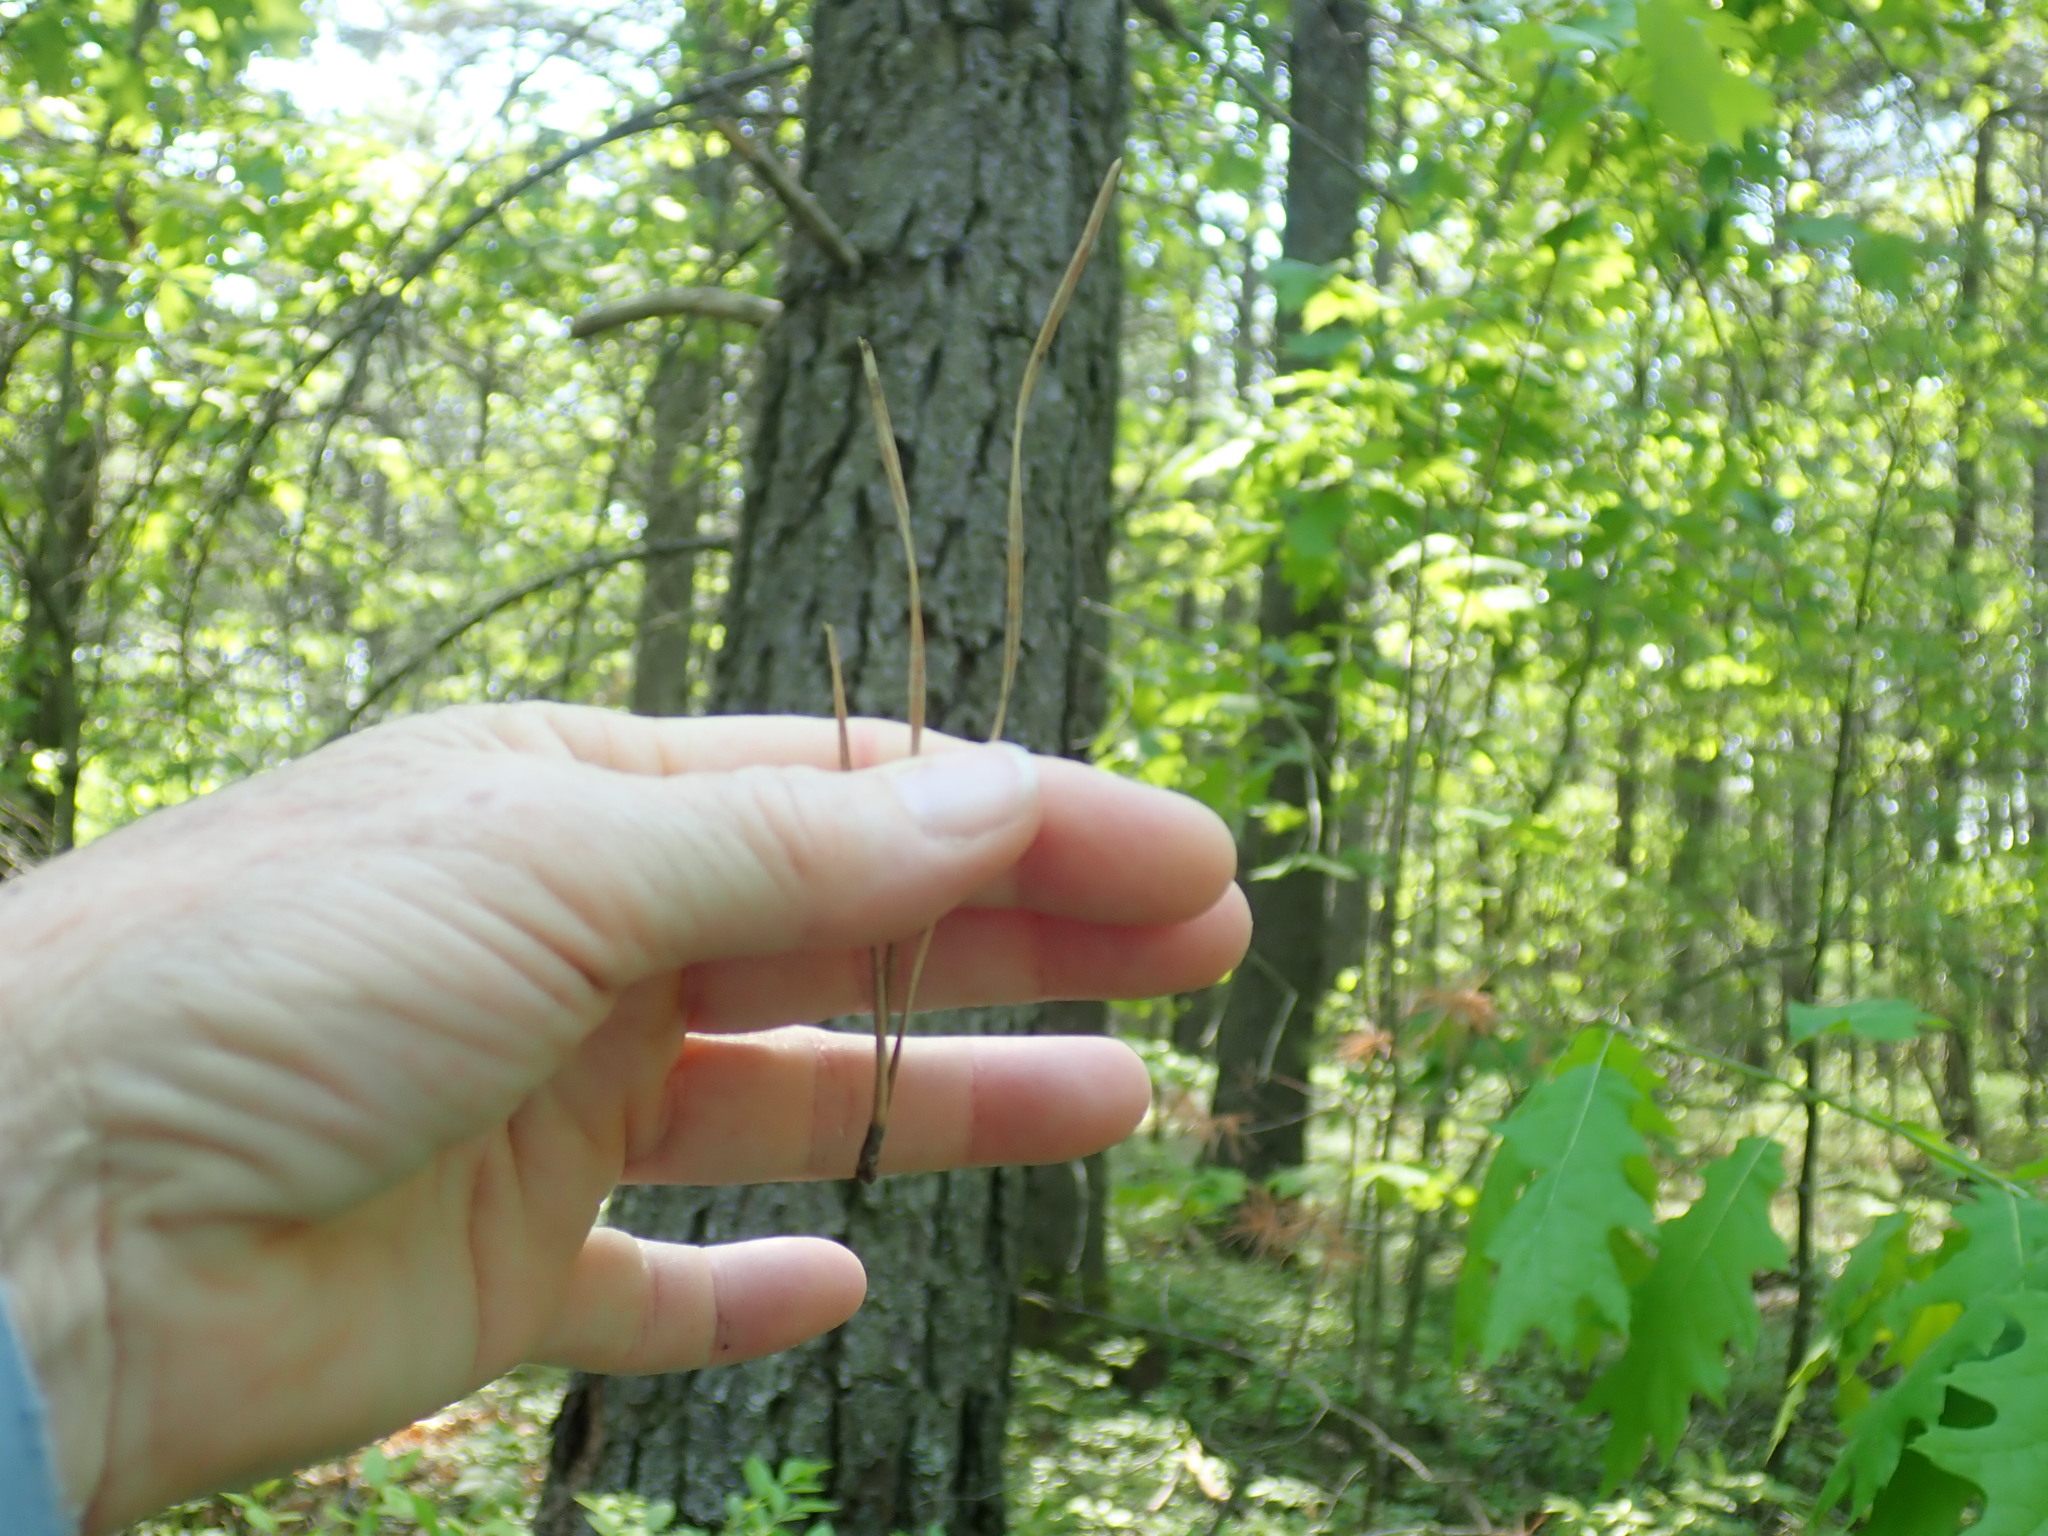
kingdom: Plantae
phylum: Tracheophyta
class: Pinopsida
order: Pinales
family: Pinaceae
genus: Pinus
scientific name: Pinus rigida
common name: Pitch pine
